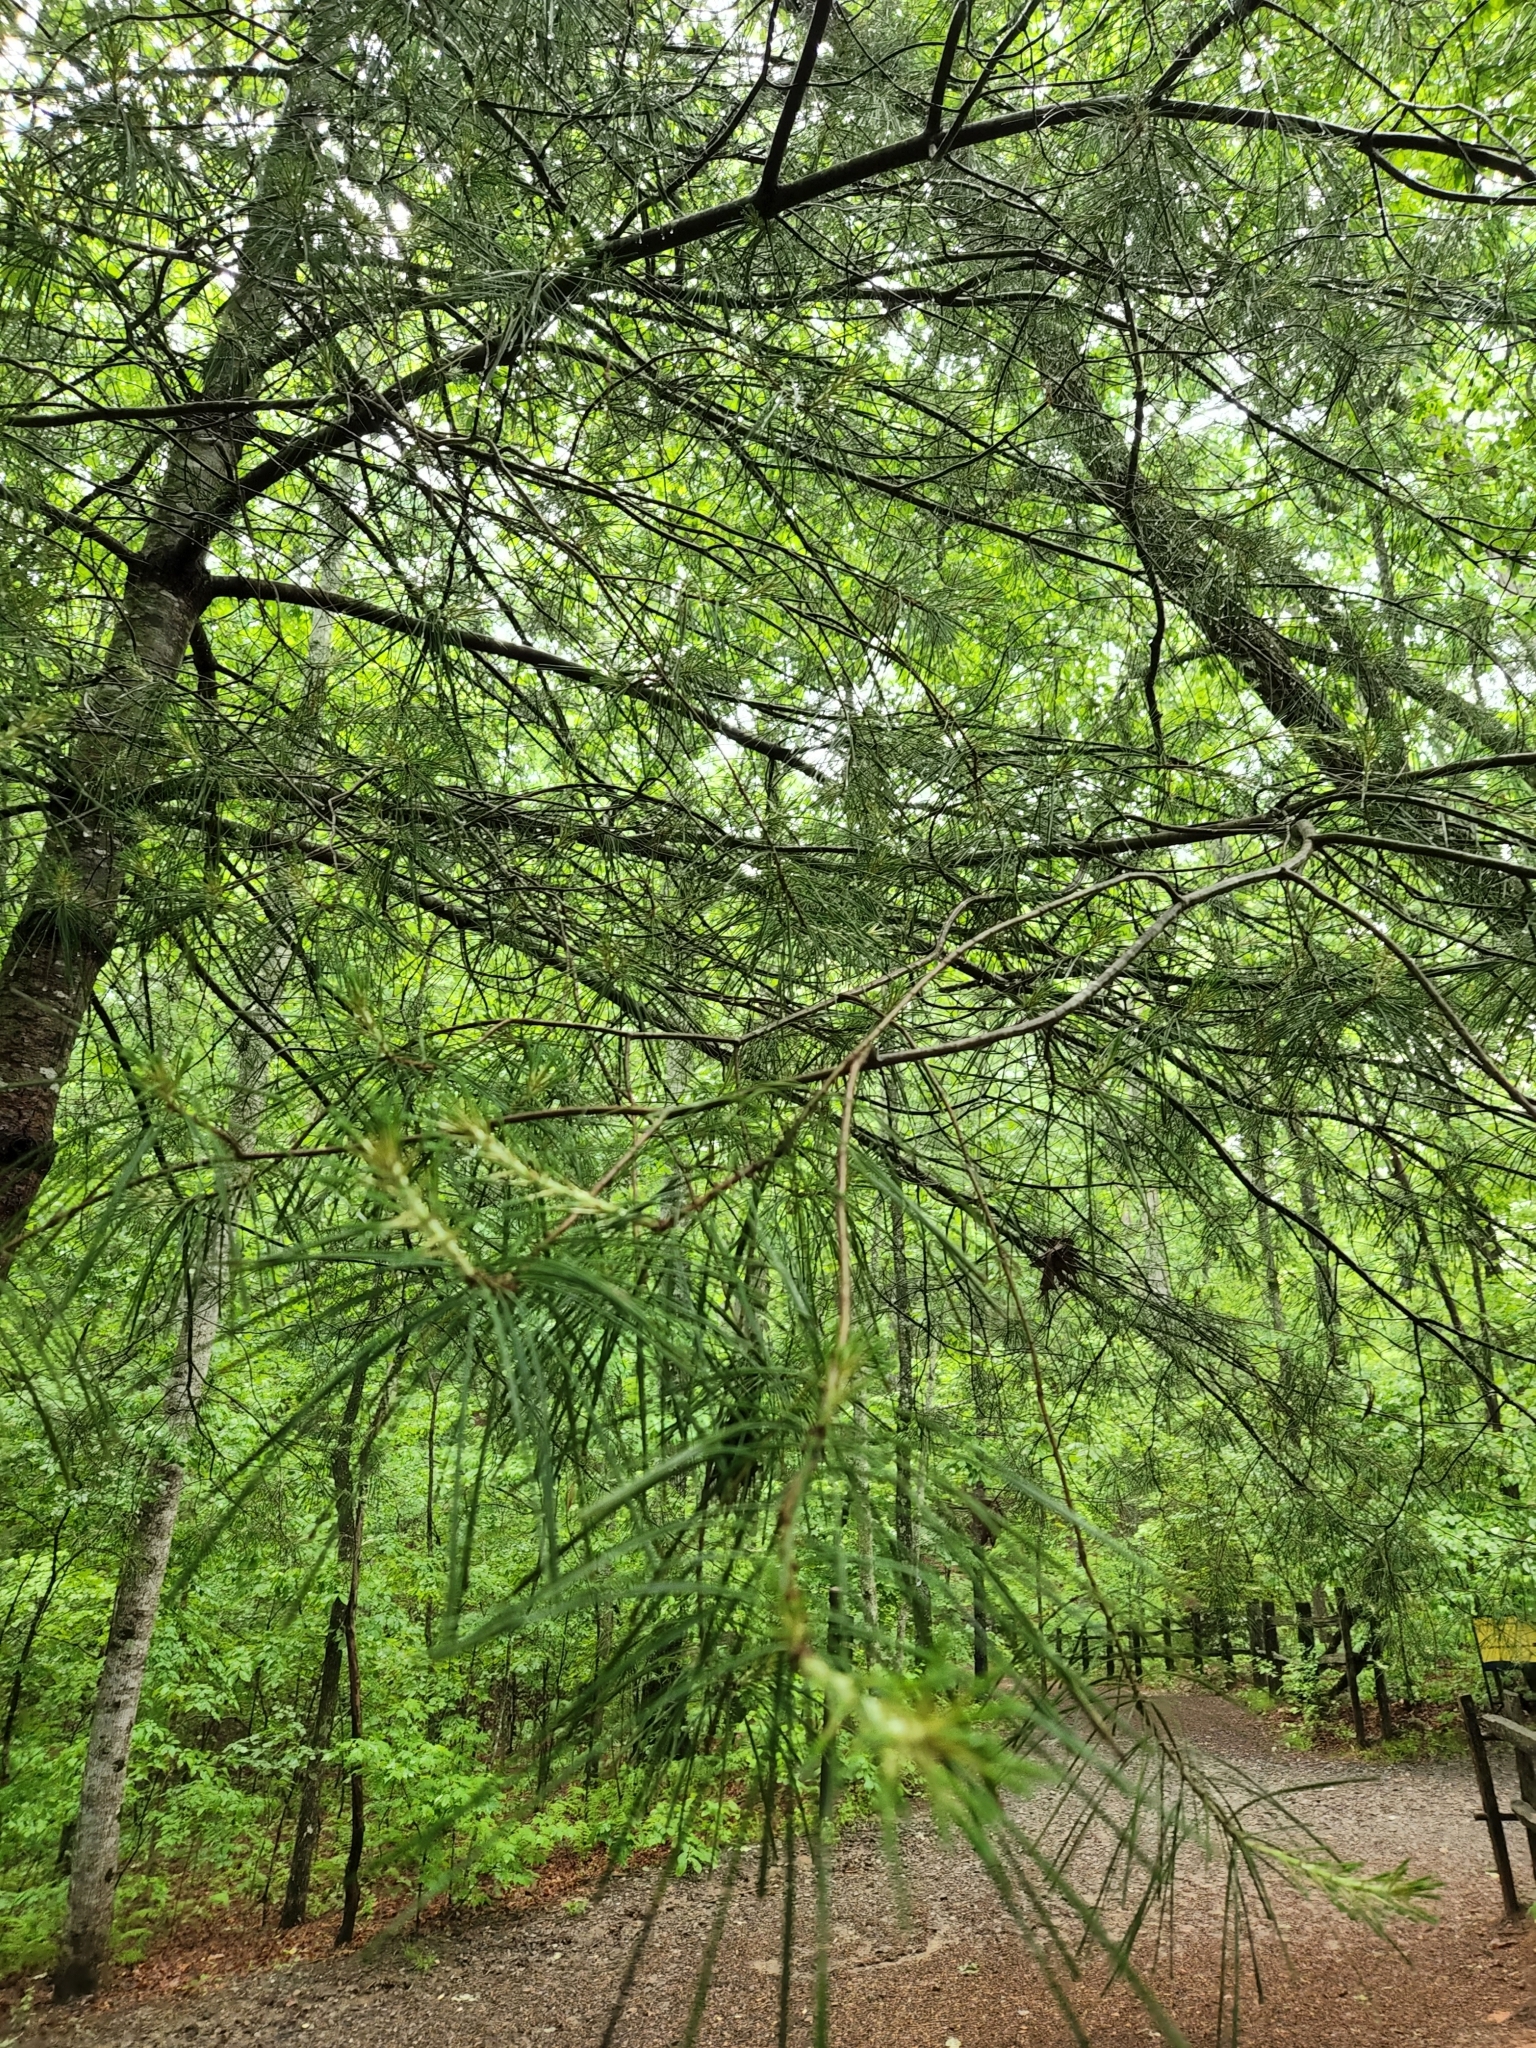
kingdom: Plantae
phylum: Tracheophyta
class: Pinopsida
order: Pinales
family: Pinaceae
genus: Pinus
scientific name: Pinus echinata
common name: Shortleaf pine
